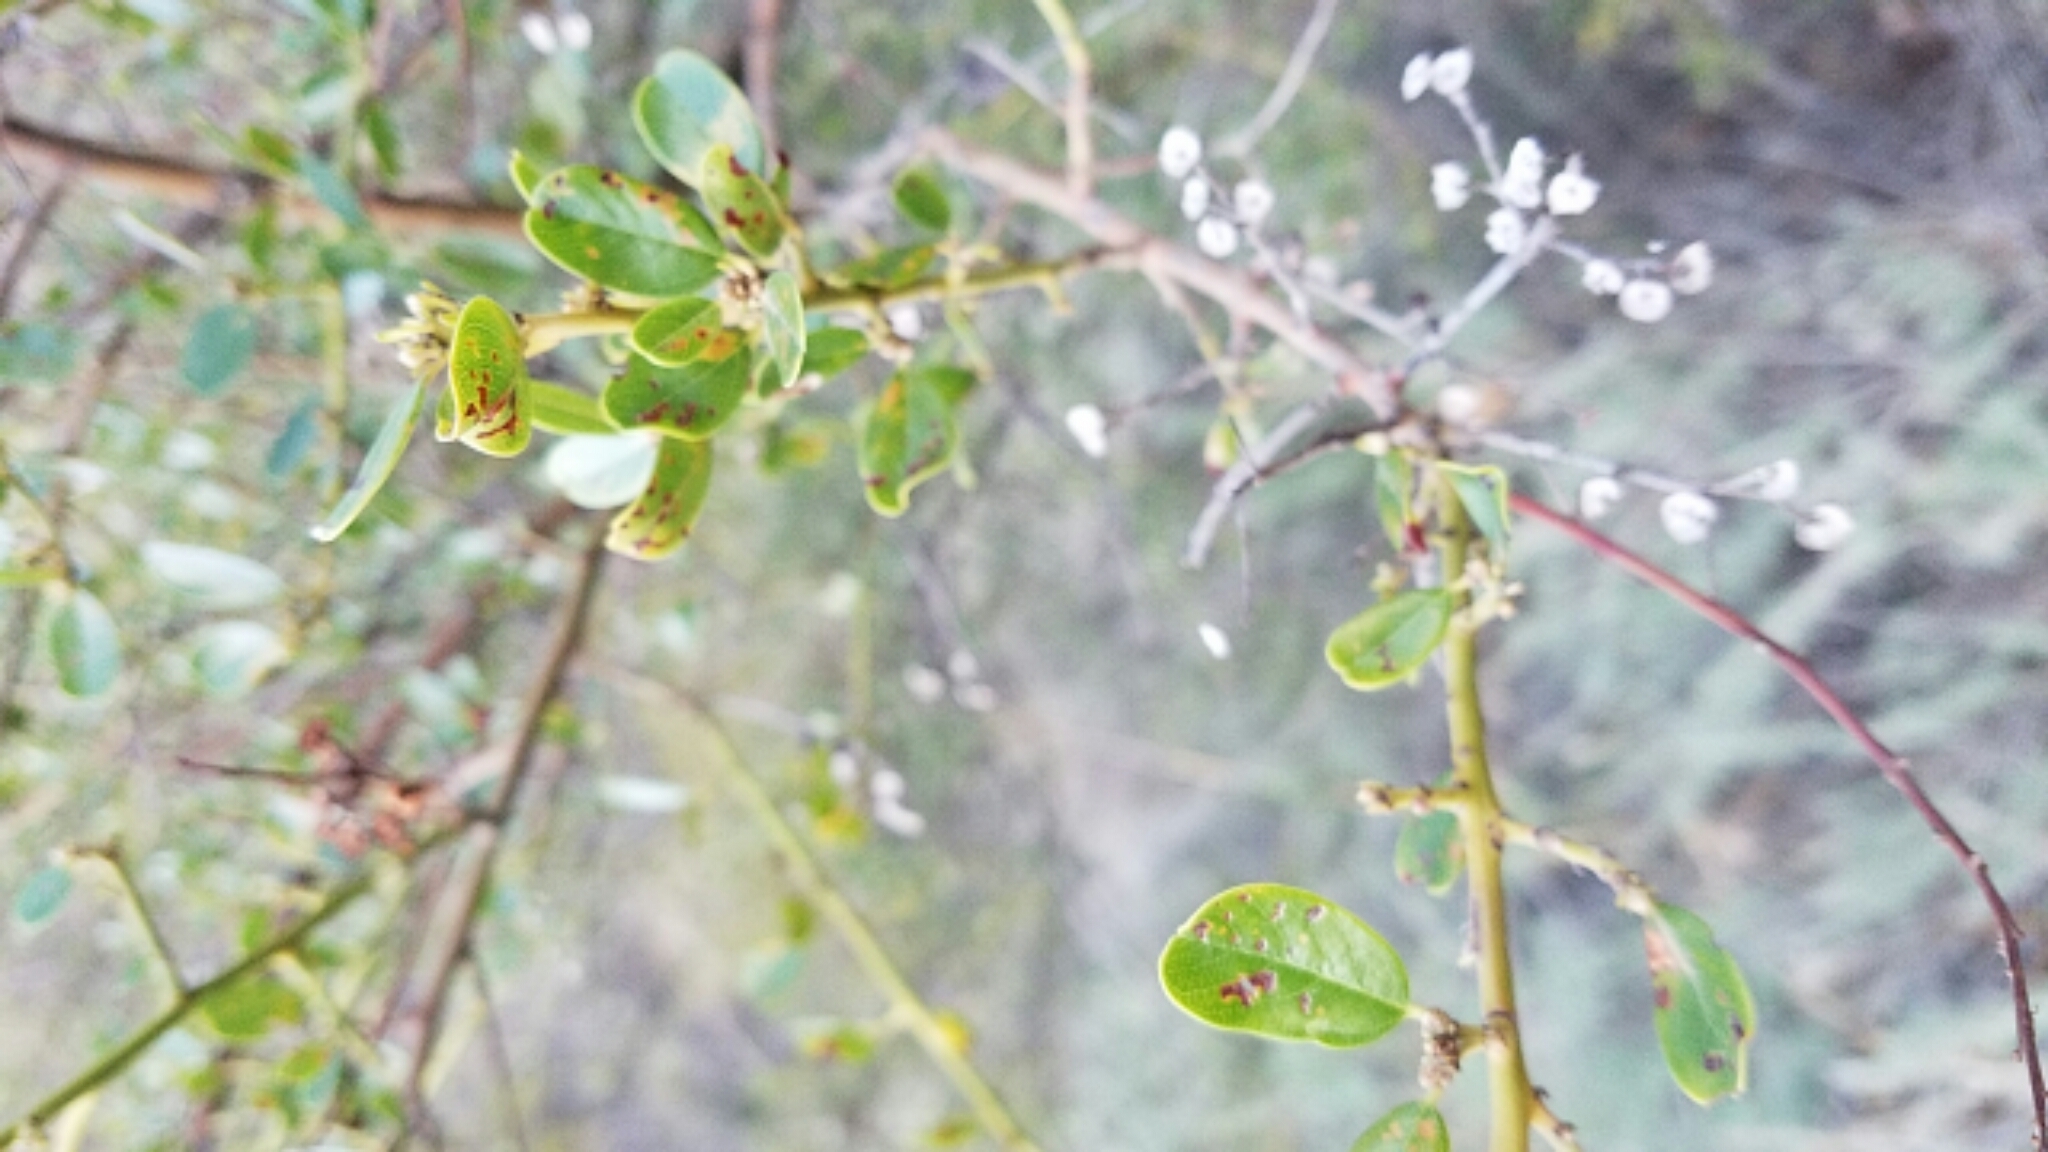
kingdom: Plantae
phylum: Tracheophyta
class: Magnoliopsida
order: Rosales
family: Rhamnaceae
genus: Ceanothus
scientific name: Ceanothus spinosus
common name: Greenbark whitethorn
